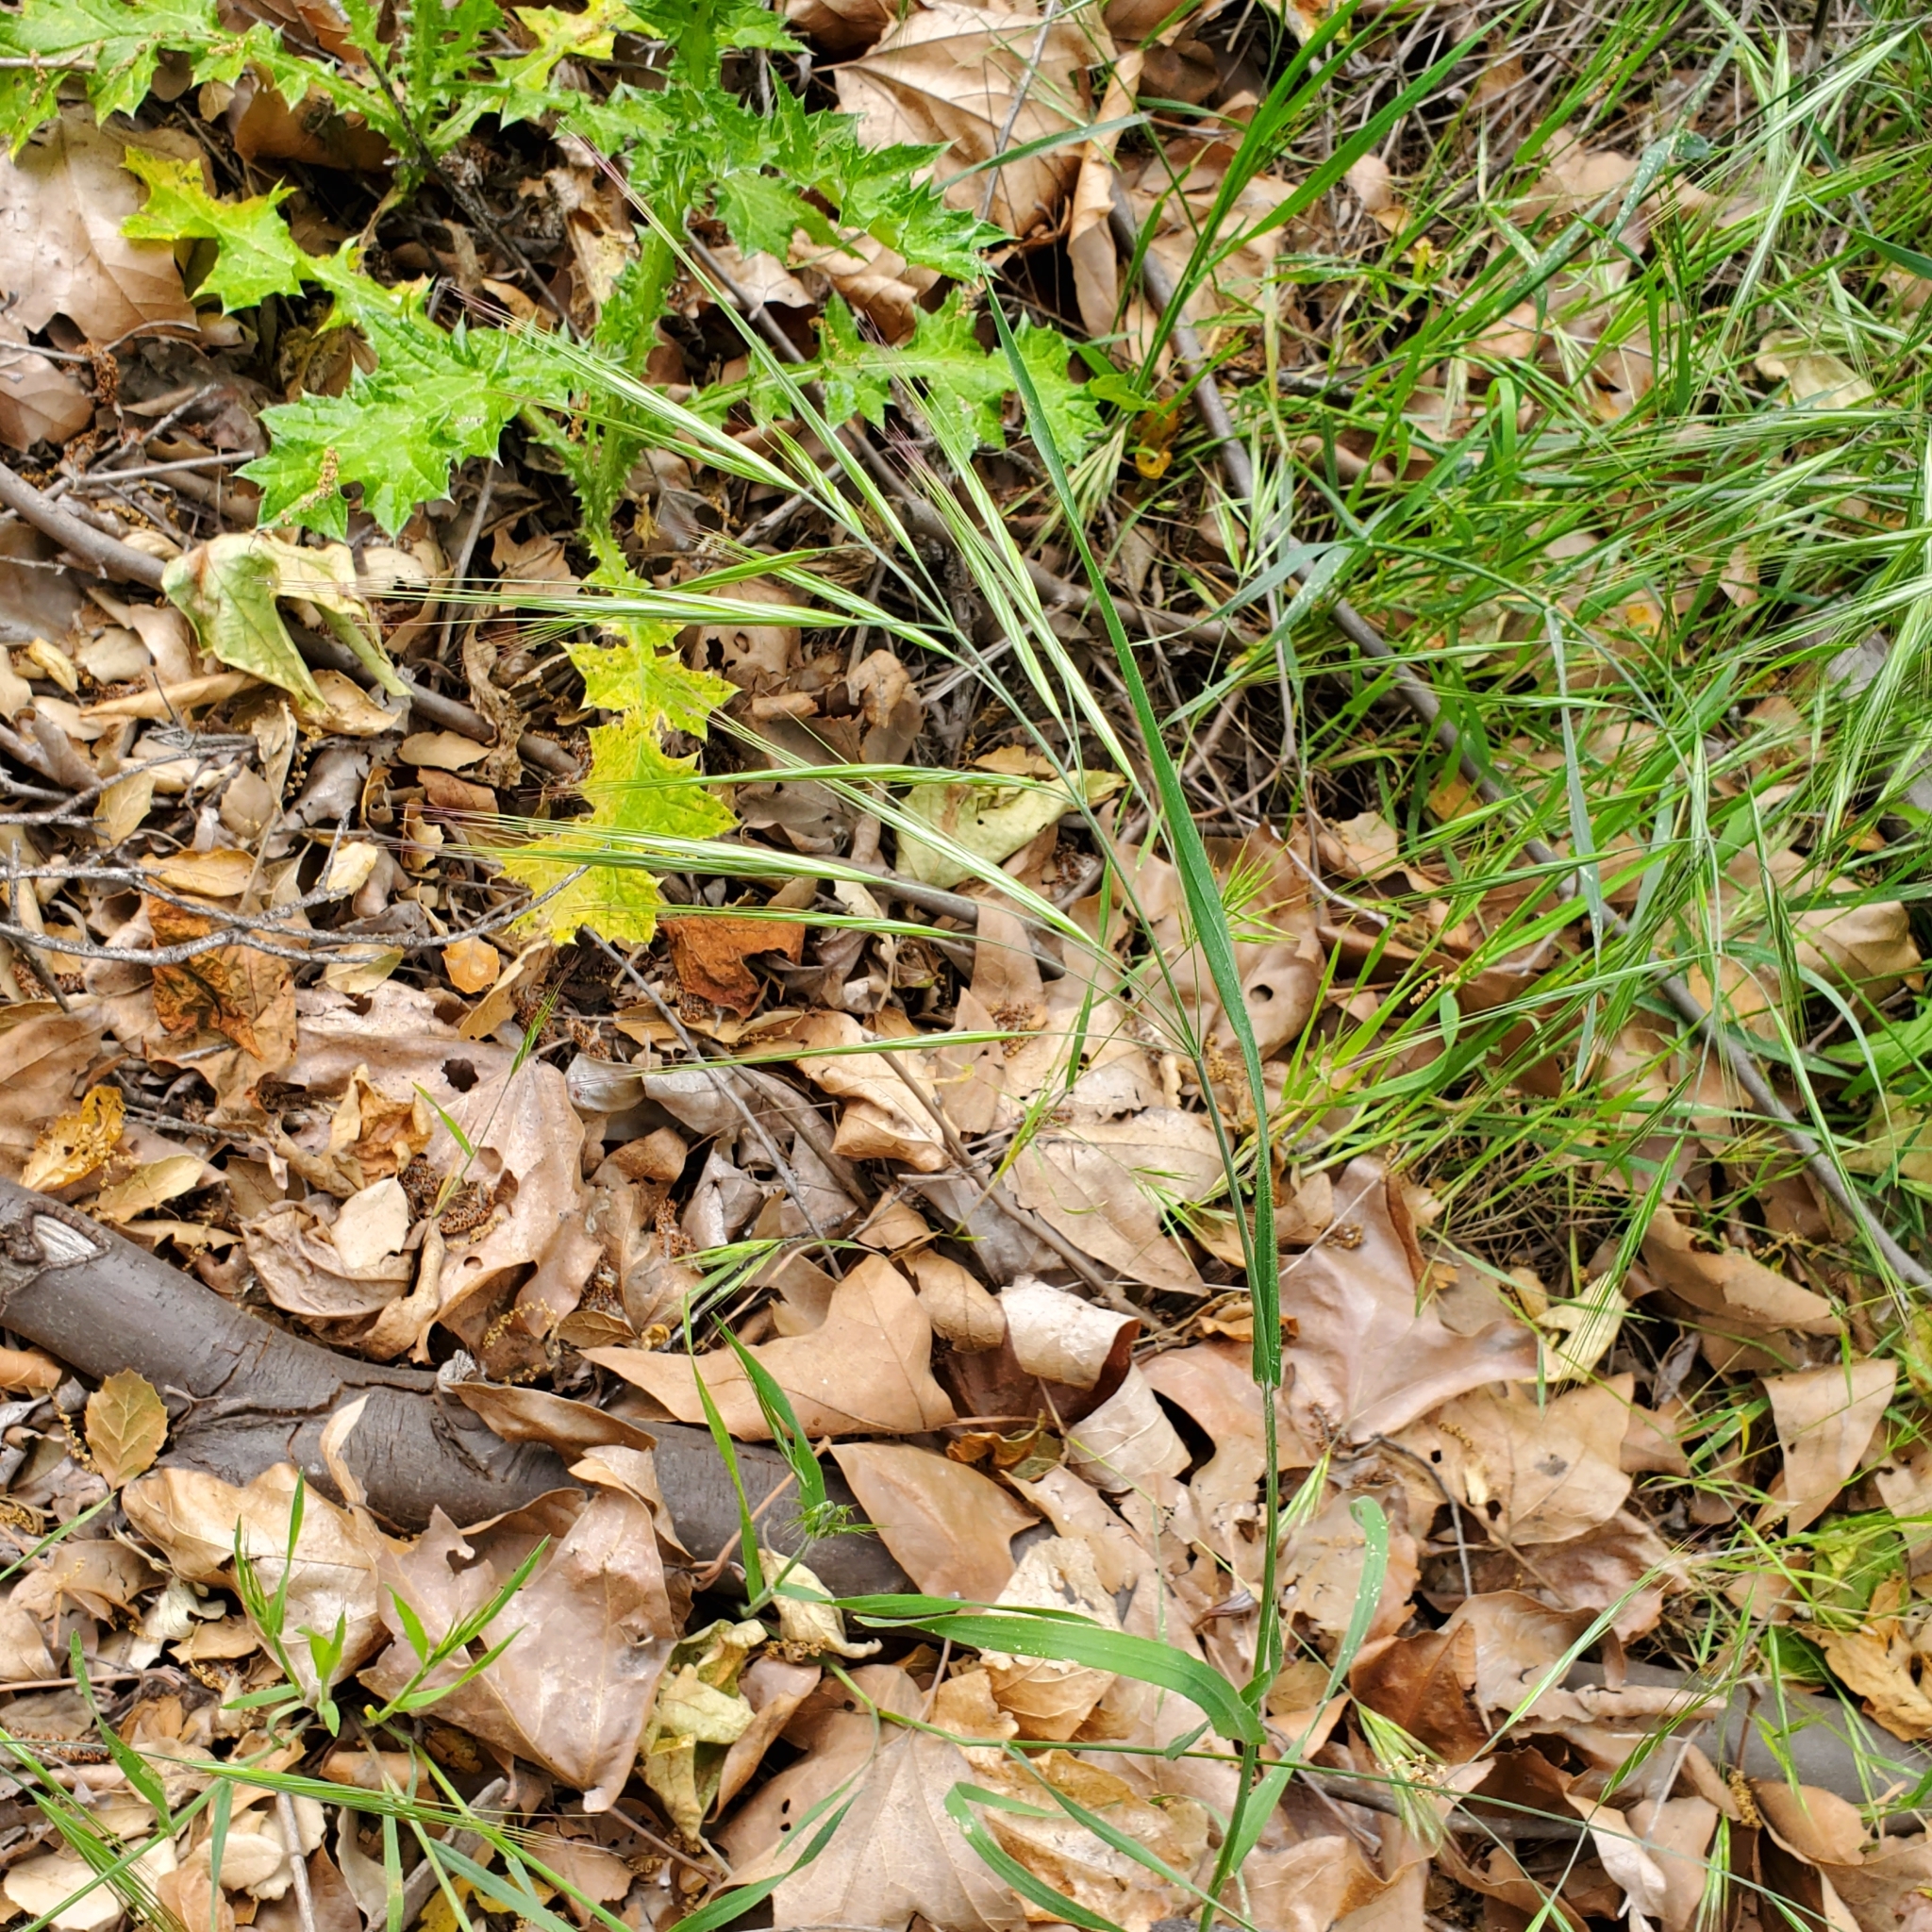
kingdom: Plantae
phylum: Tracheophyta
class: Liliopsida
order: Poales
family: Poaceae
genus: Bromus
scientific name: Bromus diandrus
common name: Ripgut brome
